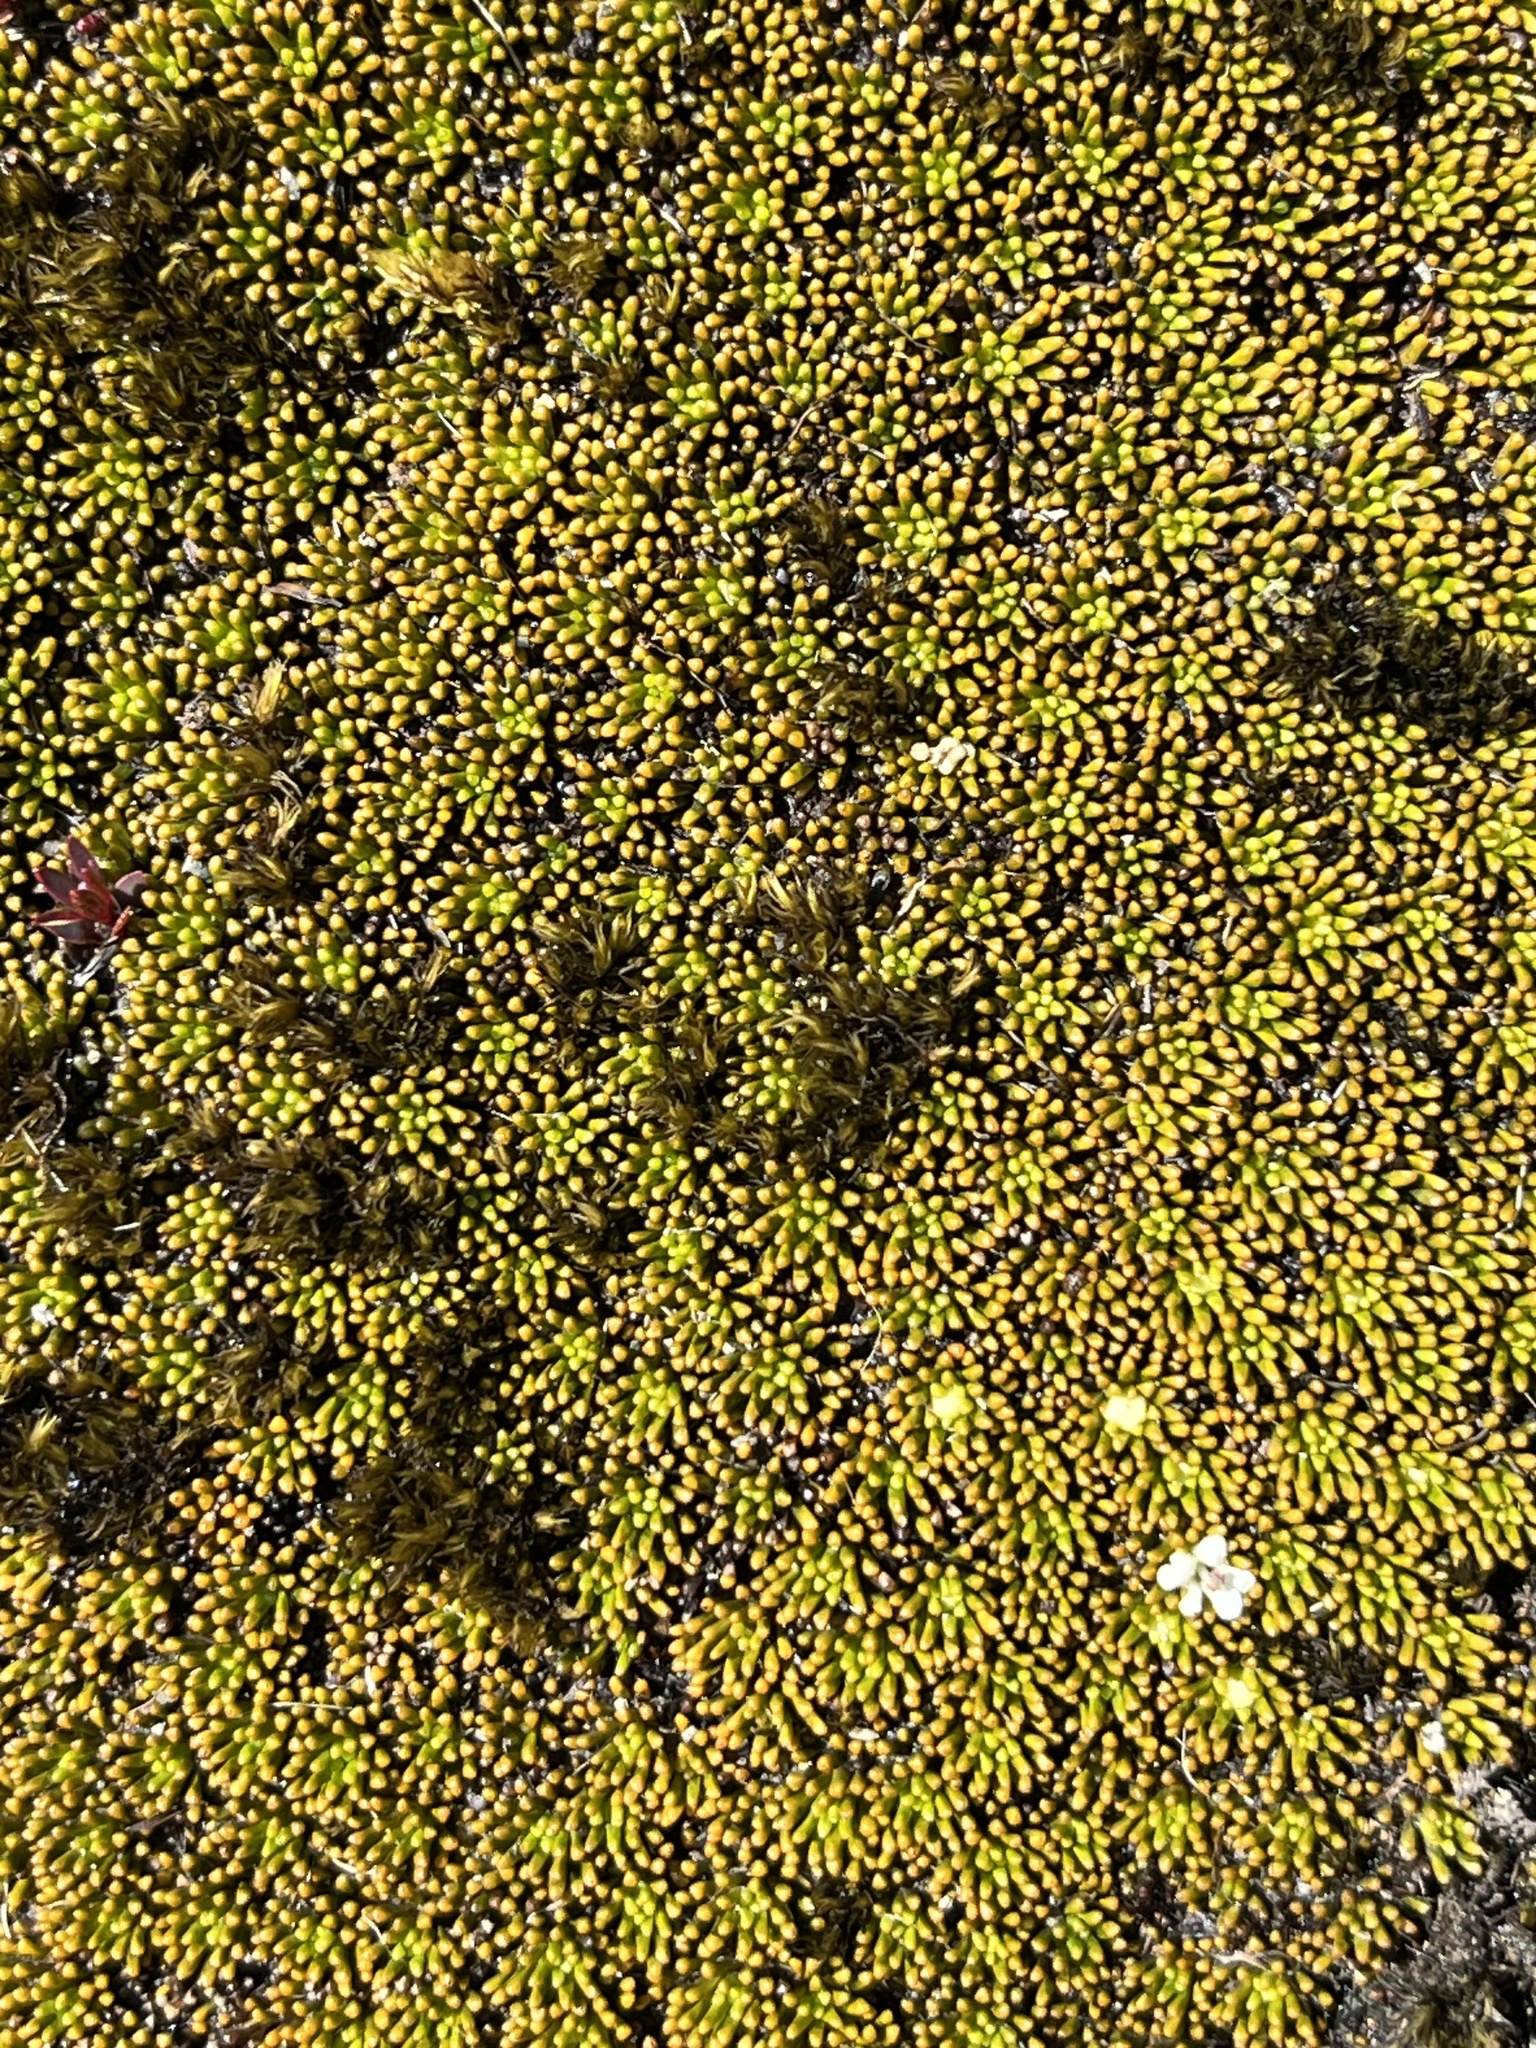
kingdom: Plantae
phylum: Tracheophyta
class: Magnoliopsida
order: Asterales
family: Stylidiaceae
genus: Phyllachne
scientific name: Phyllachne colensoi
